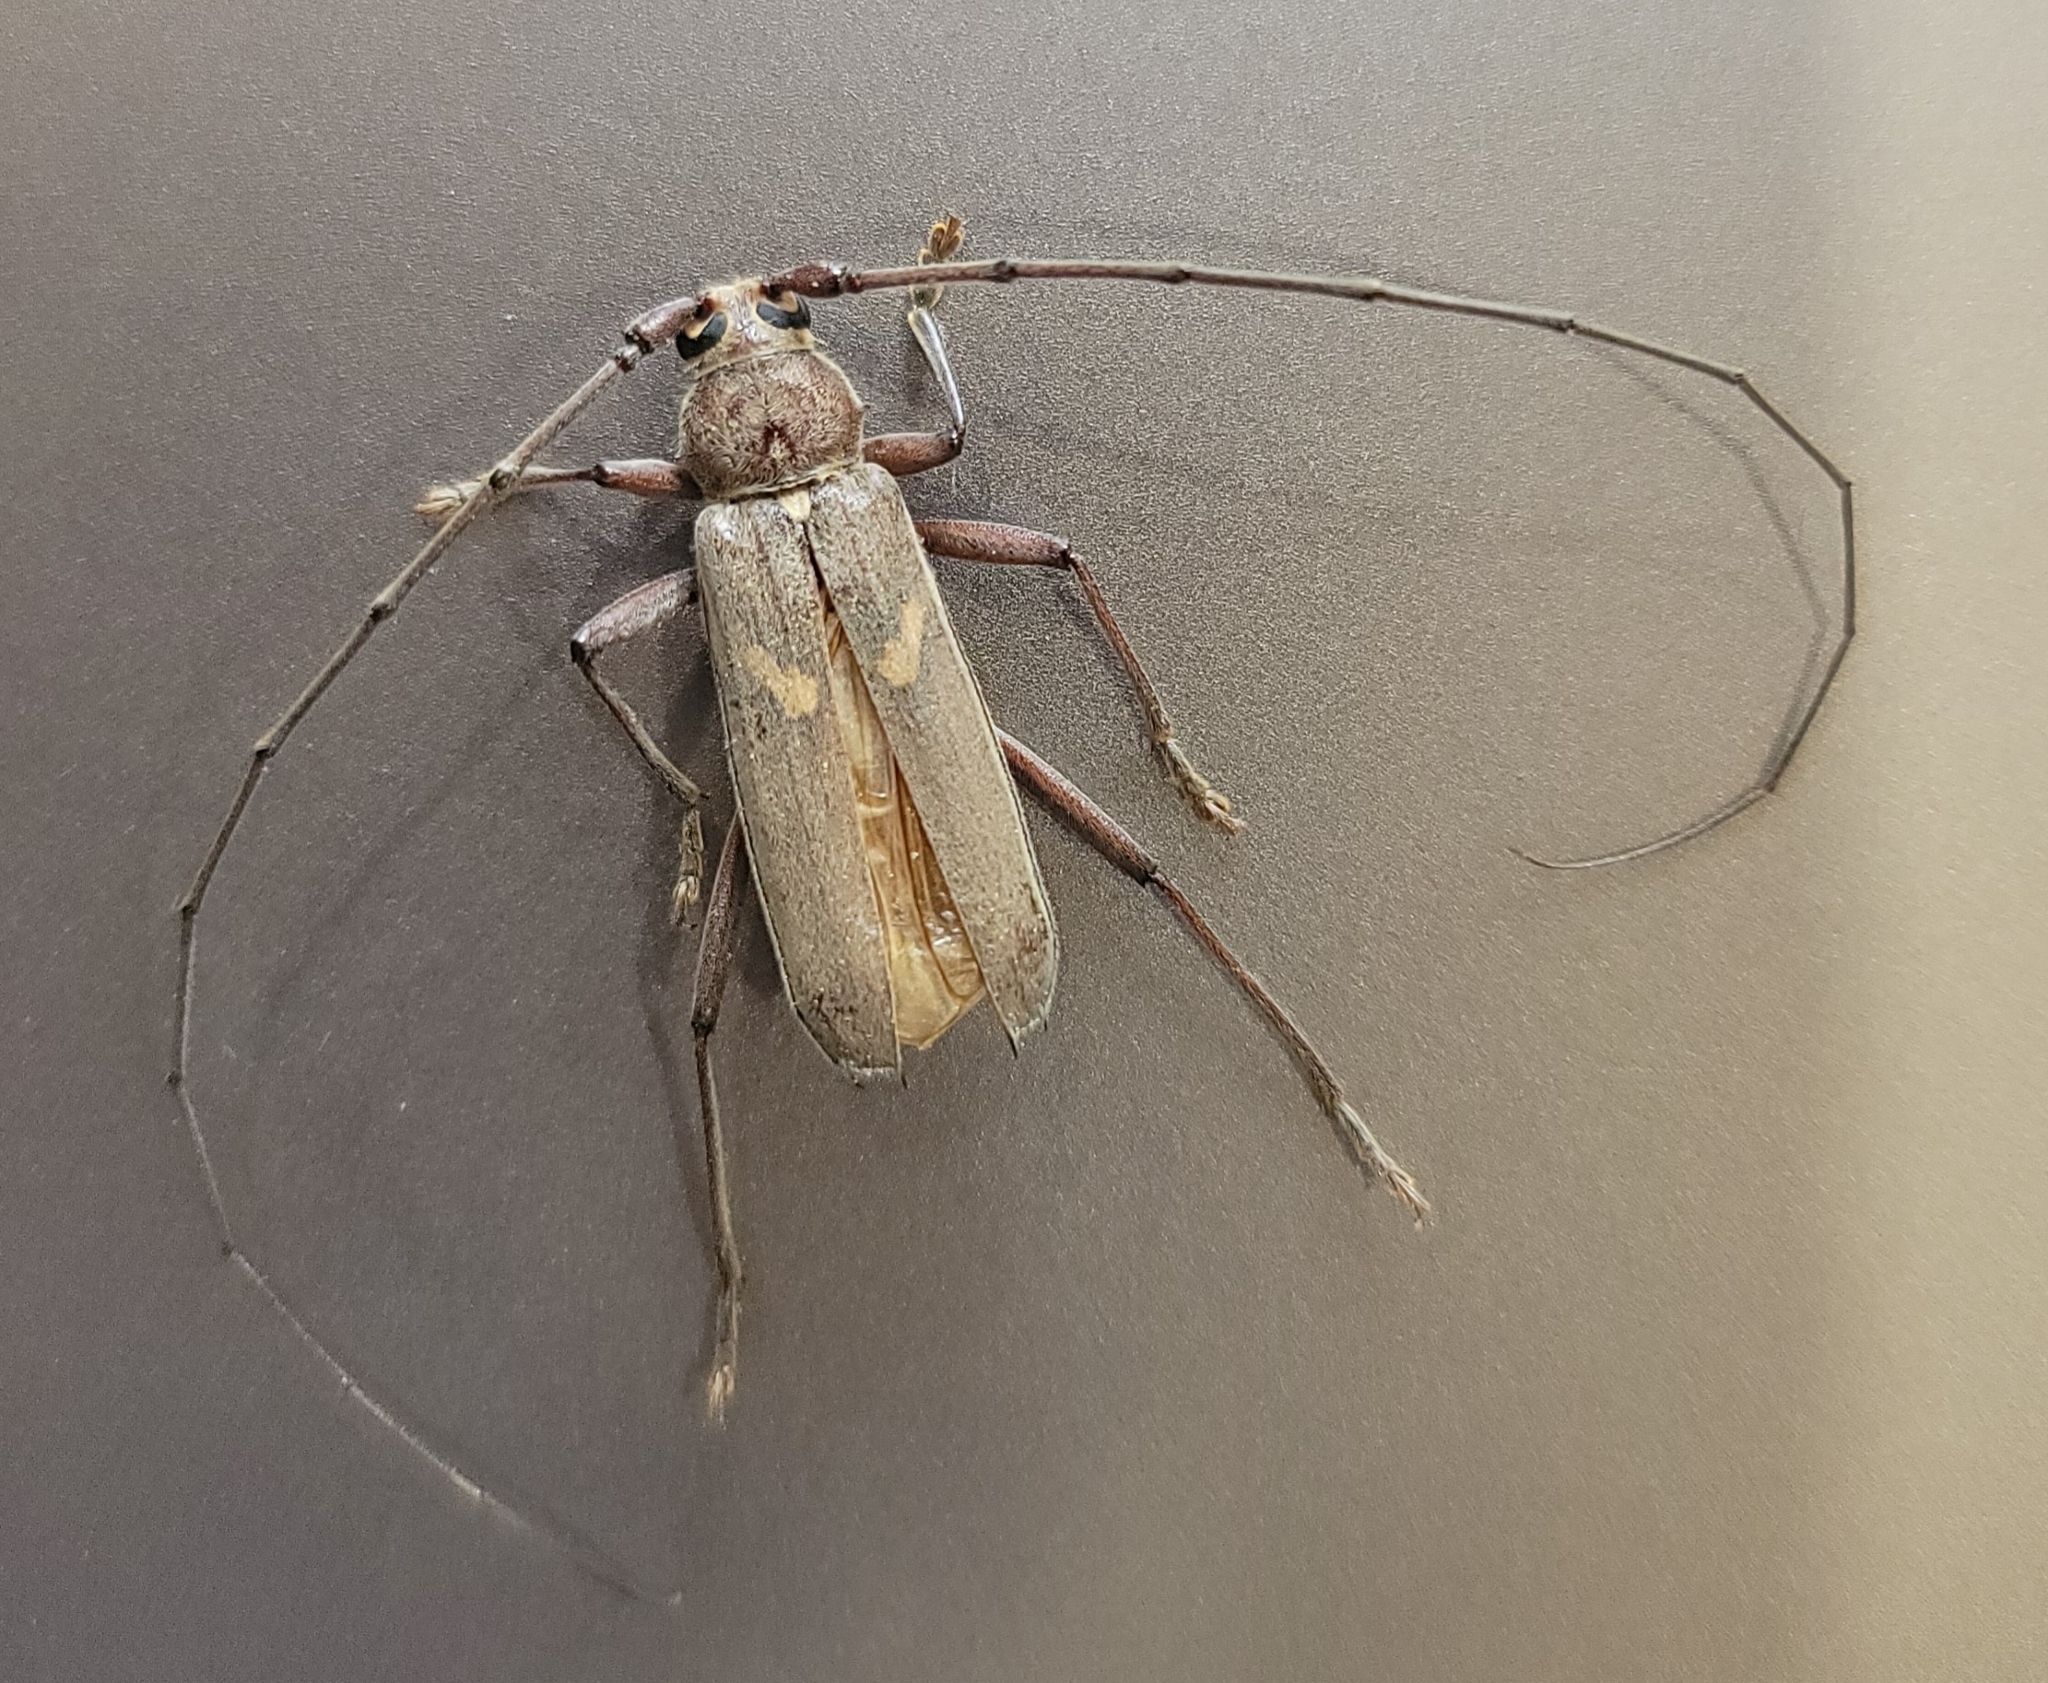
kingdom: Animalia
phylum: Arthropoda
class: Insecta
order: Coleoptera
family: Cerambycidae
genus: Knulliana
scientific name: Knulliana cincta
